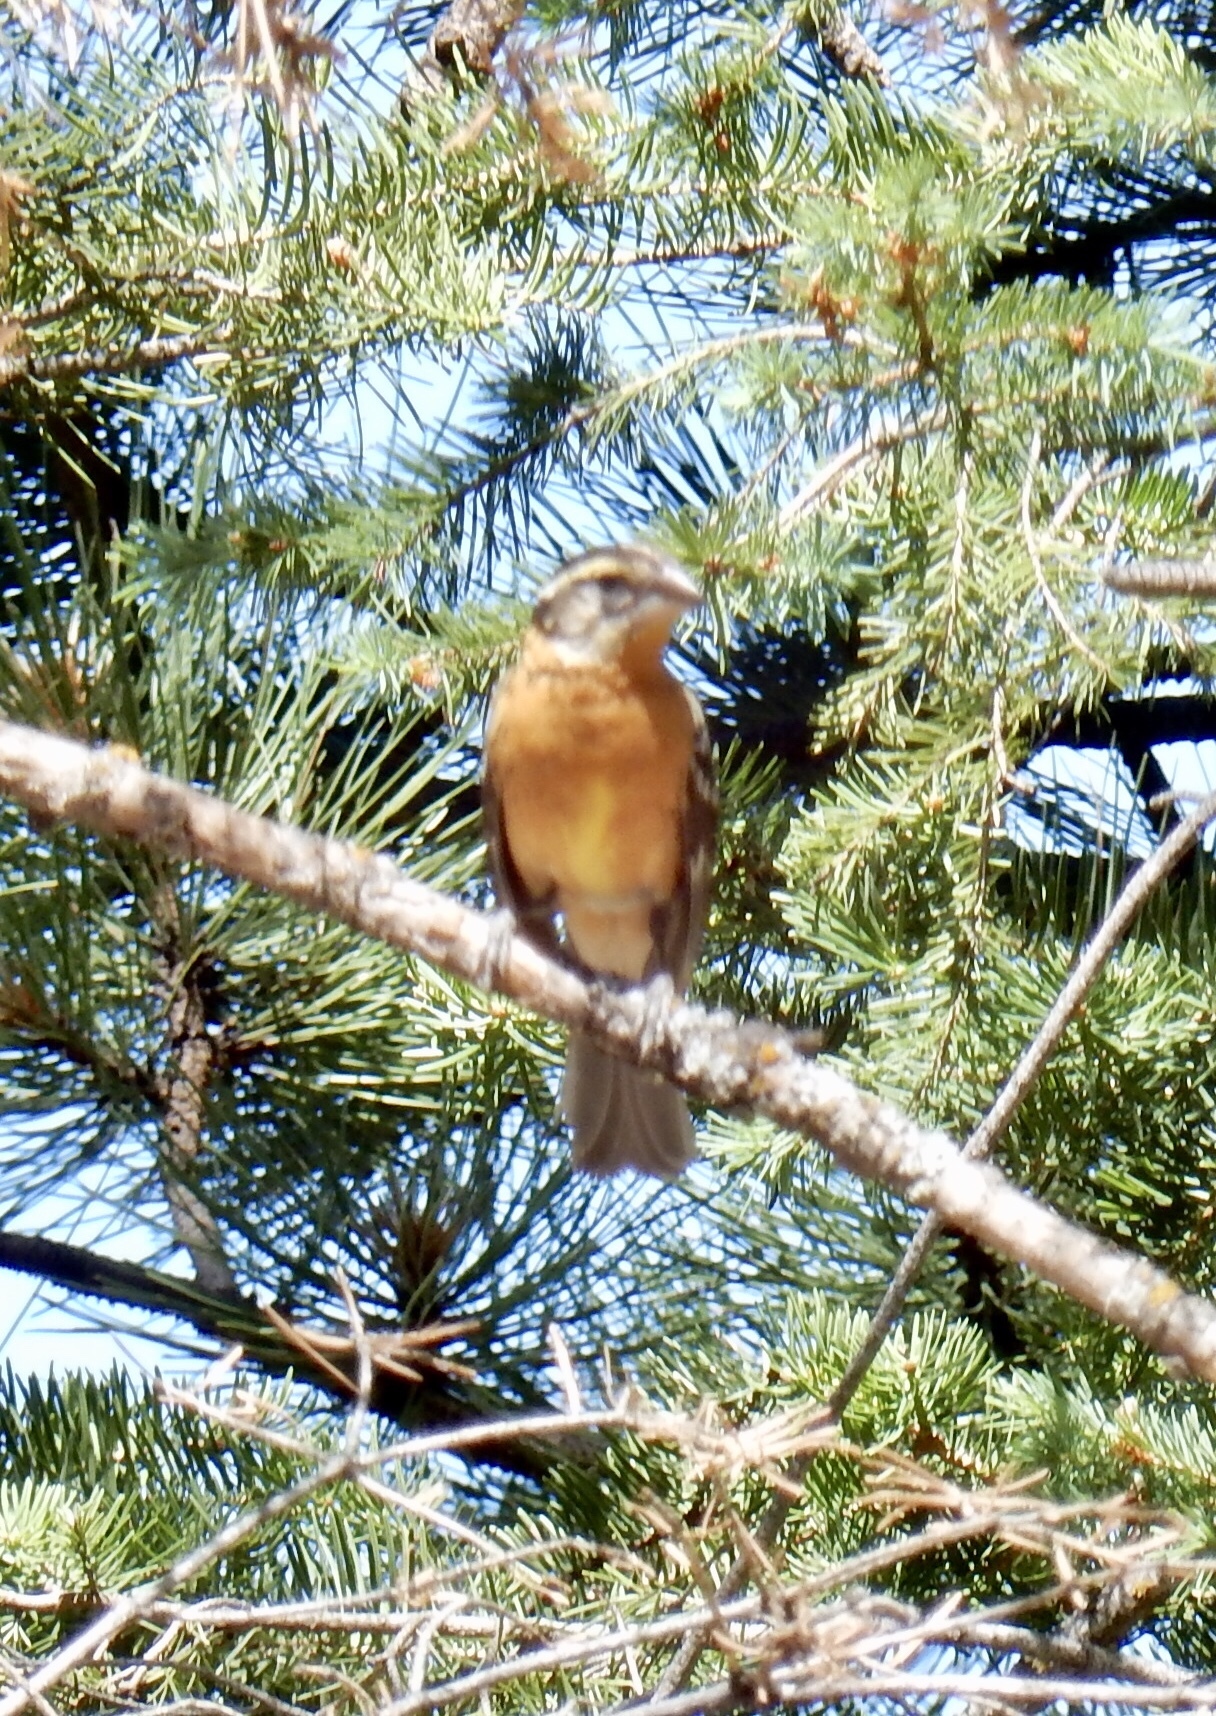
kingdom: Animalia
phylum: Chordata
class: Aves
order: Passeriformes
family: Cardinalidae
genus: Pheucticus
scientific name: Pheucticus melanocephalus
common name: Black-headed grosbeak
